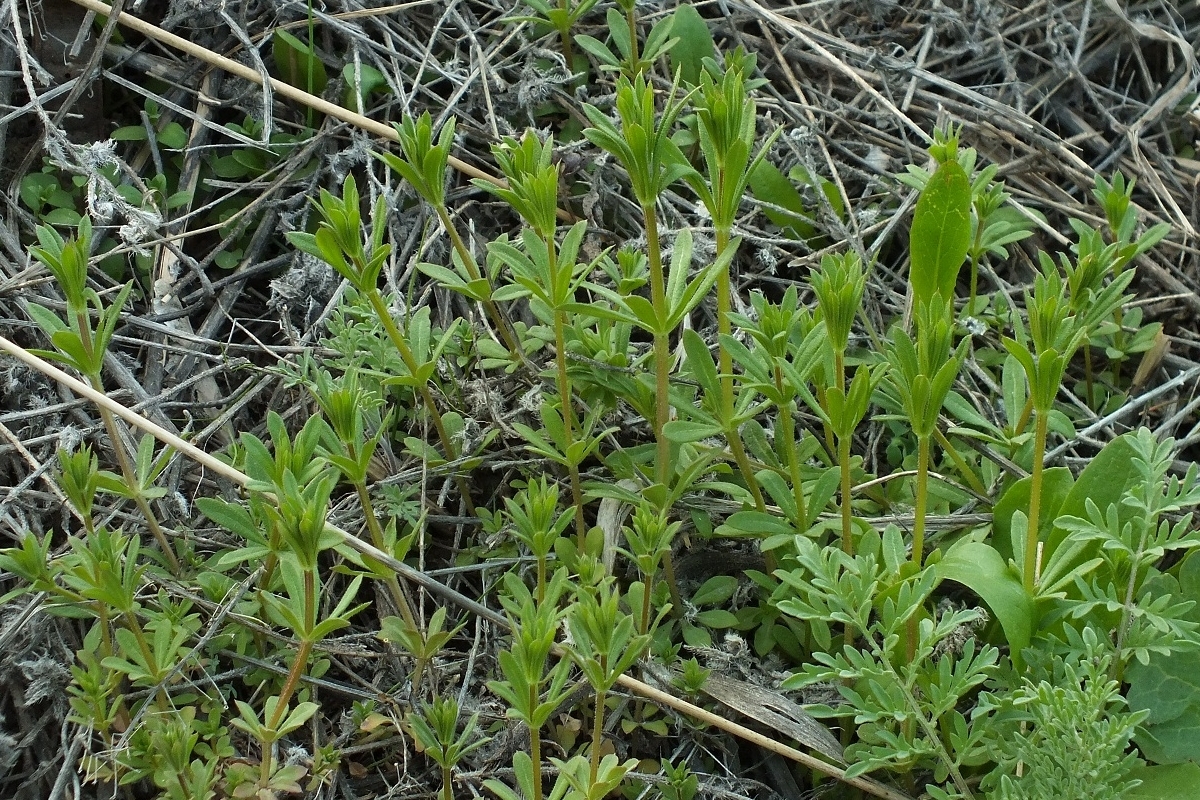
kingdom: Plantae
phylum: Tracheophyta
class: Magnoliopsida
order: Gentianales
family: Rubiaceae
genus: Galium
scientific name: Galium aparine
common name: Cleavers
